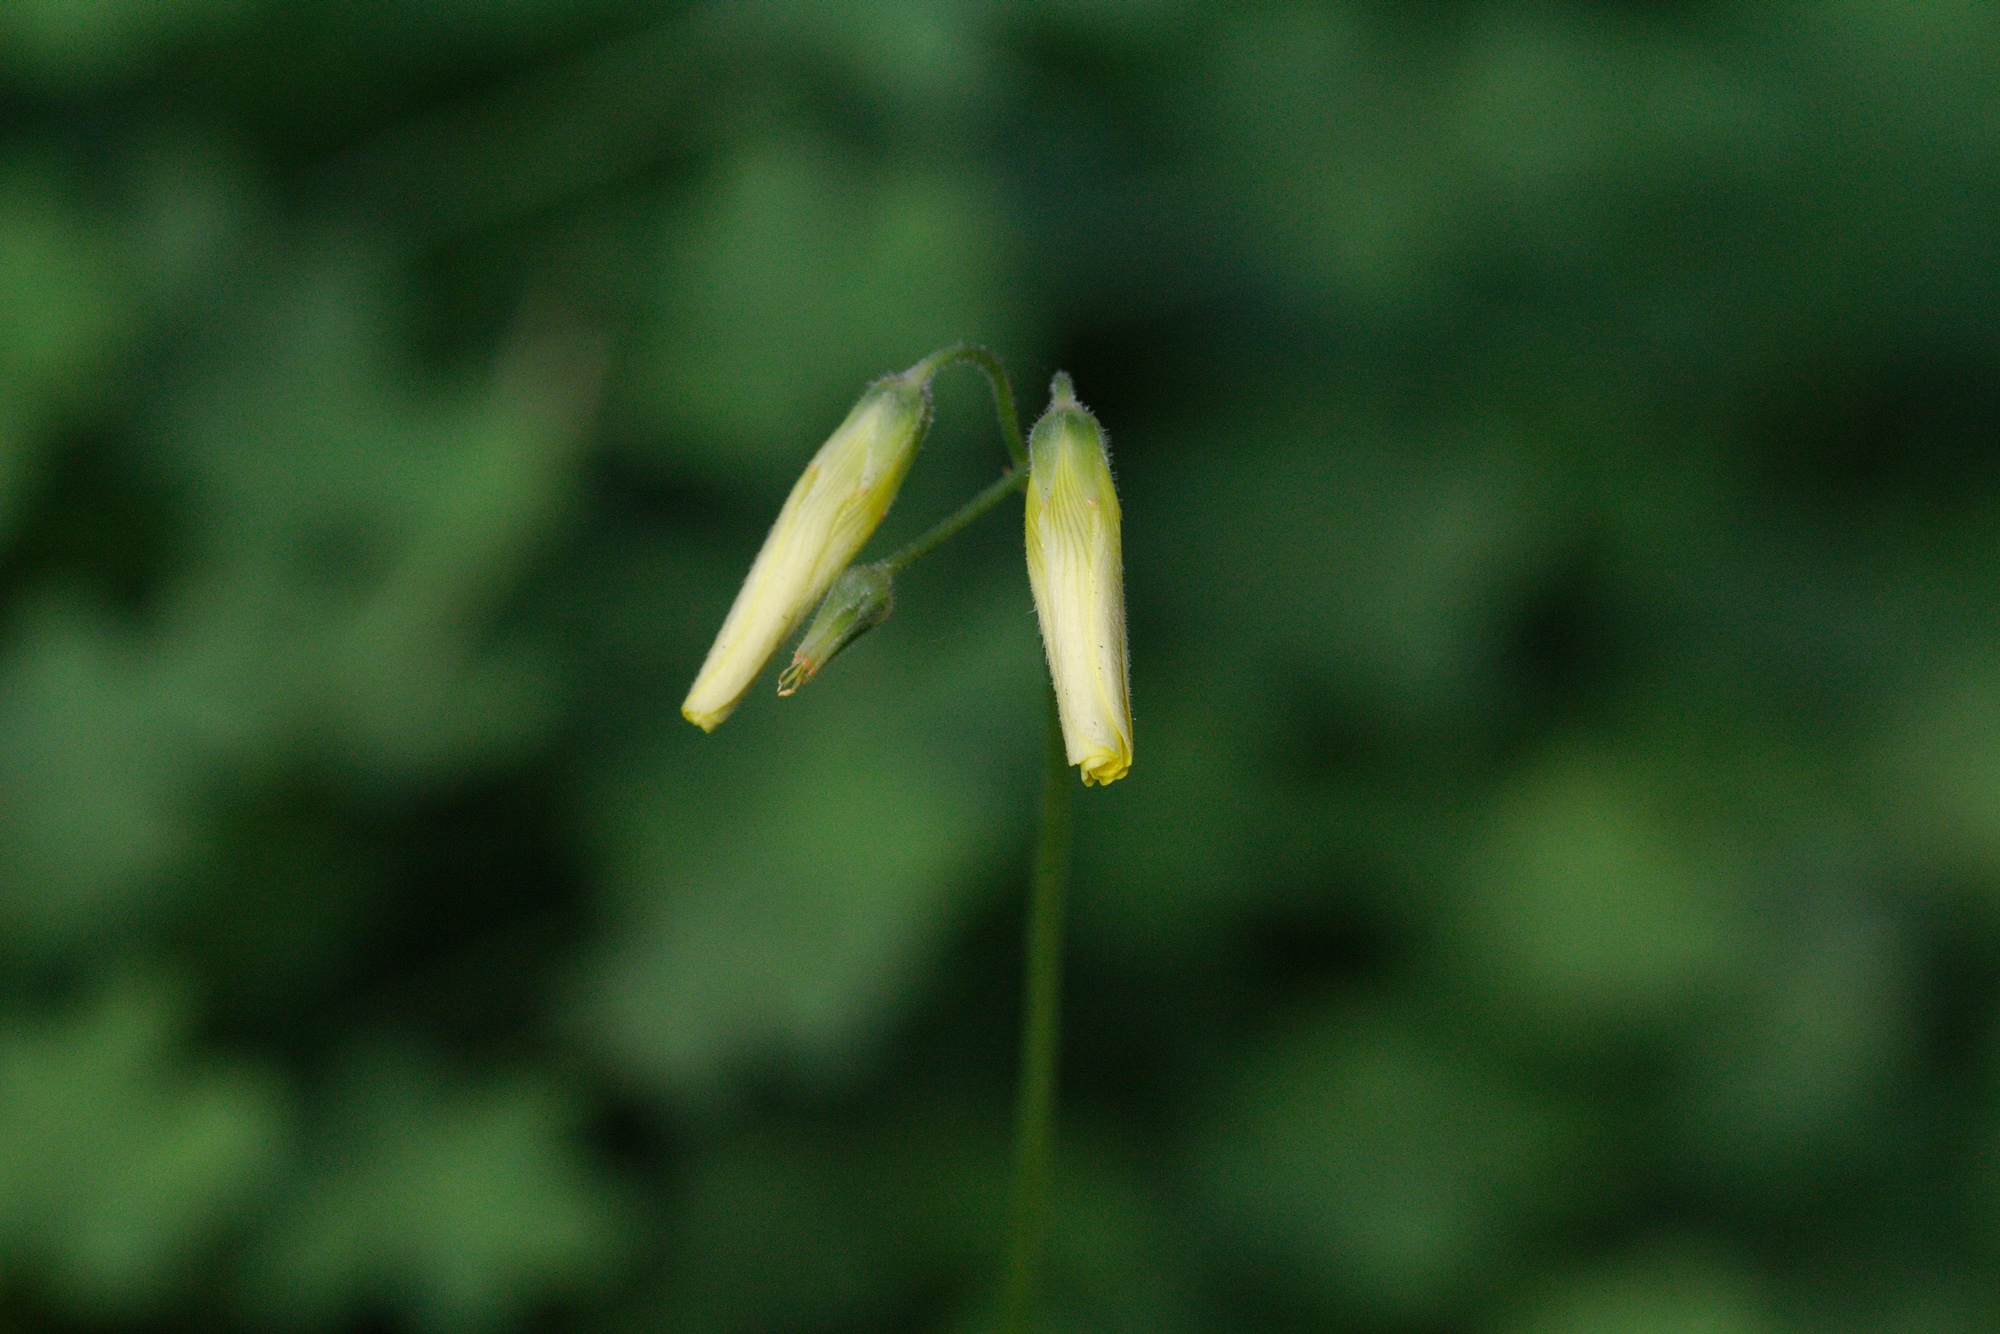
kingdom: Plantae
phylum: Tracheophyta
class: Magnoliopsida
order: Oxalidales
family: Oxalidaceae
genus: Oxalis
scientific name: Oxalis pes-caprae
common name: Bermuda-buttercup
